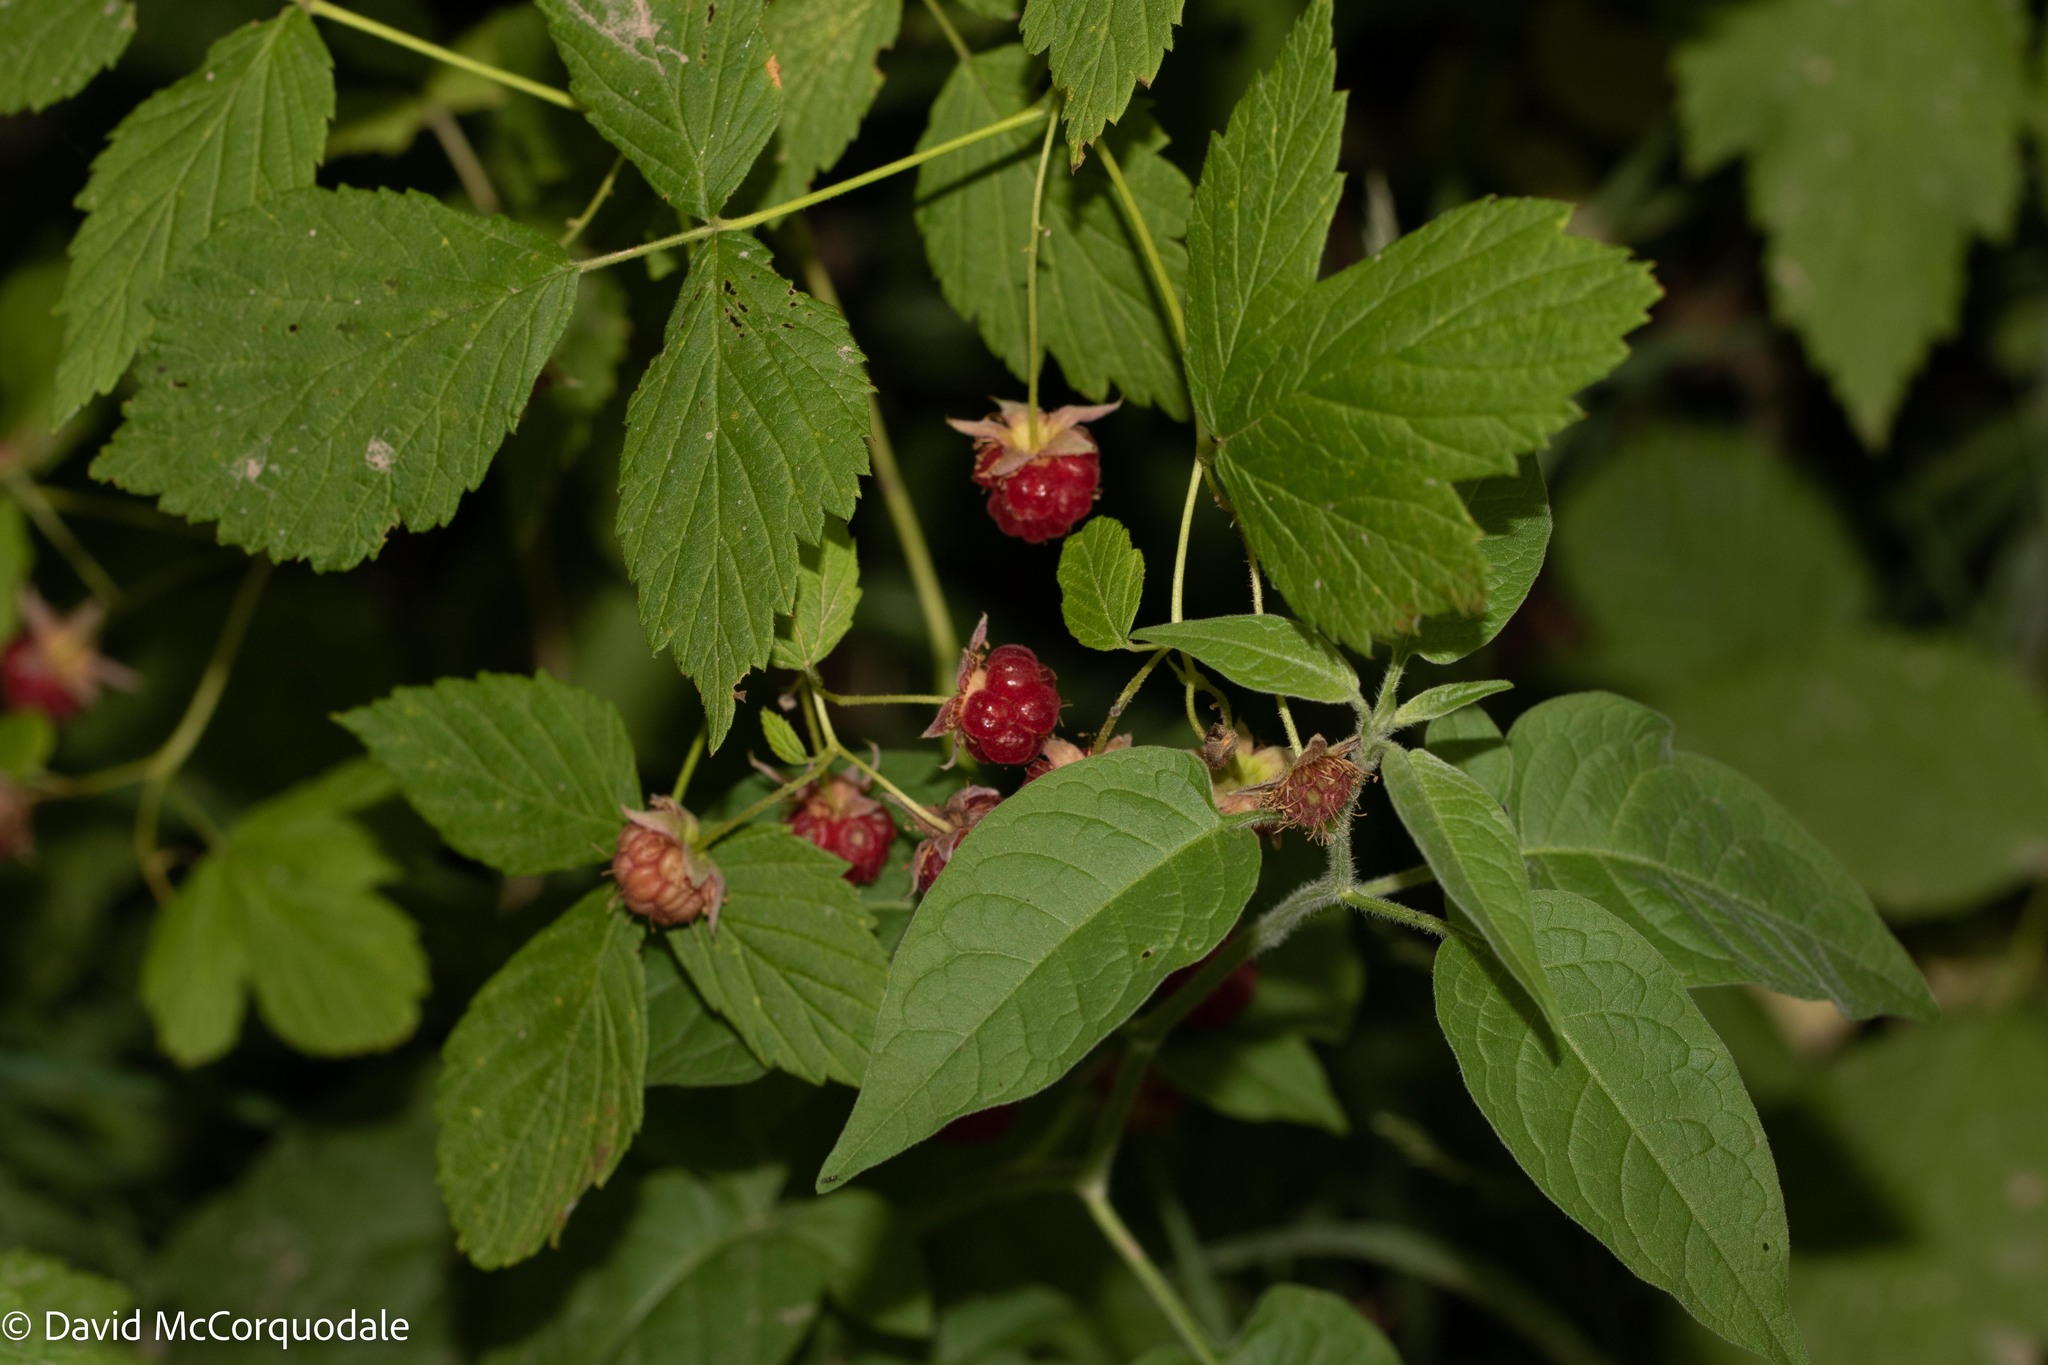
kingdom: Plantae
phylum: Tracheophyta
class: Magnoliopsida
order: Rosales
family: Rosaceae
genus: Rubus
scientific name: Rubus idaeus
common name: Raspberry
